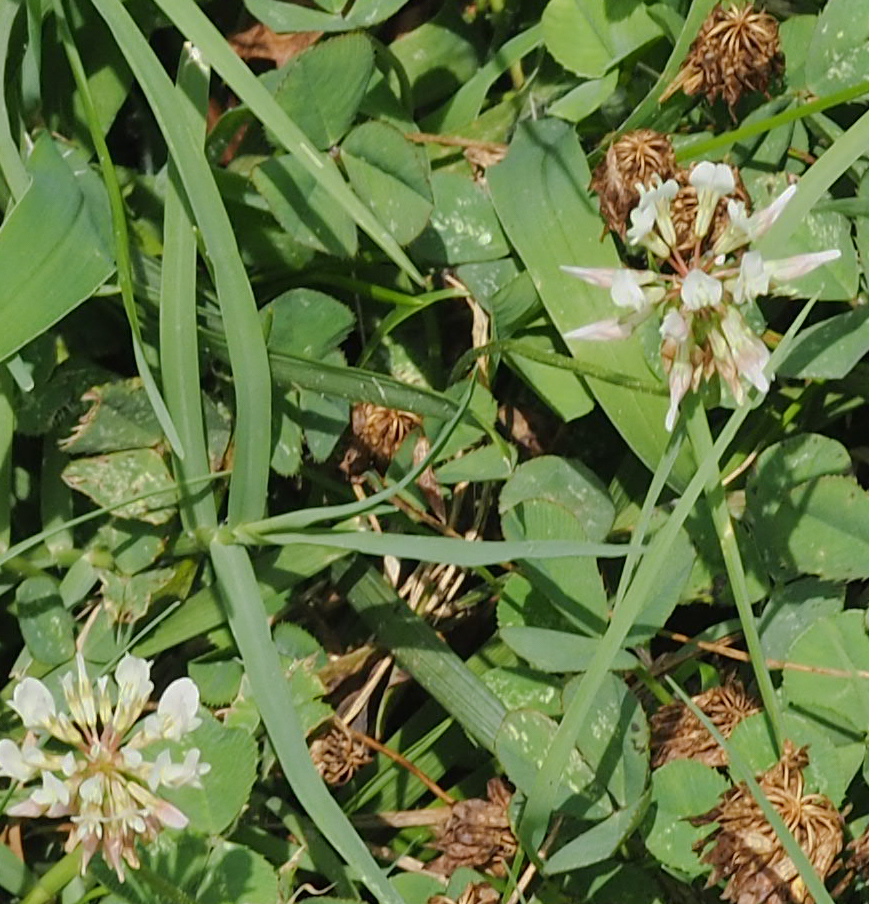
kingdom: Plantae
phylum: Tracheophyta
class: Magnoliopsida
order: Fabales
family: Fabaceae
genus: Trifolium
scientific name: Trifolium repens
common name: White clover
